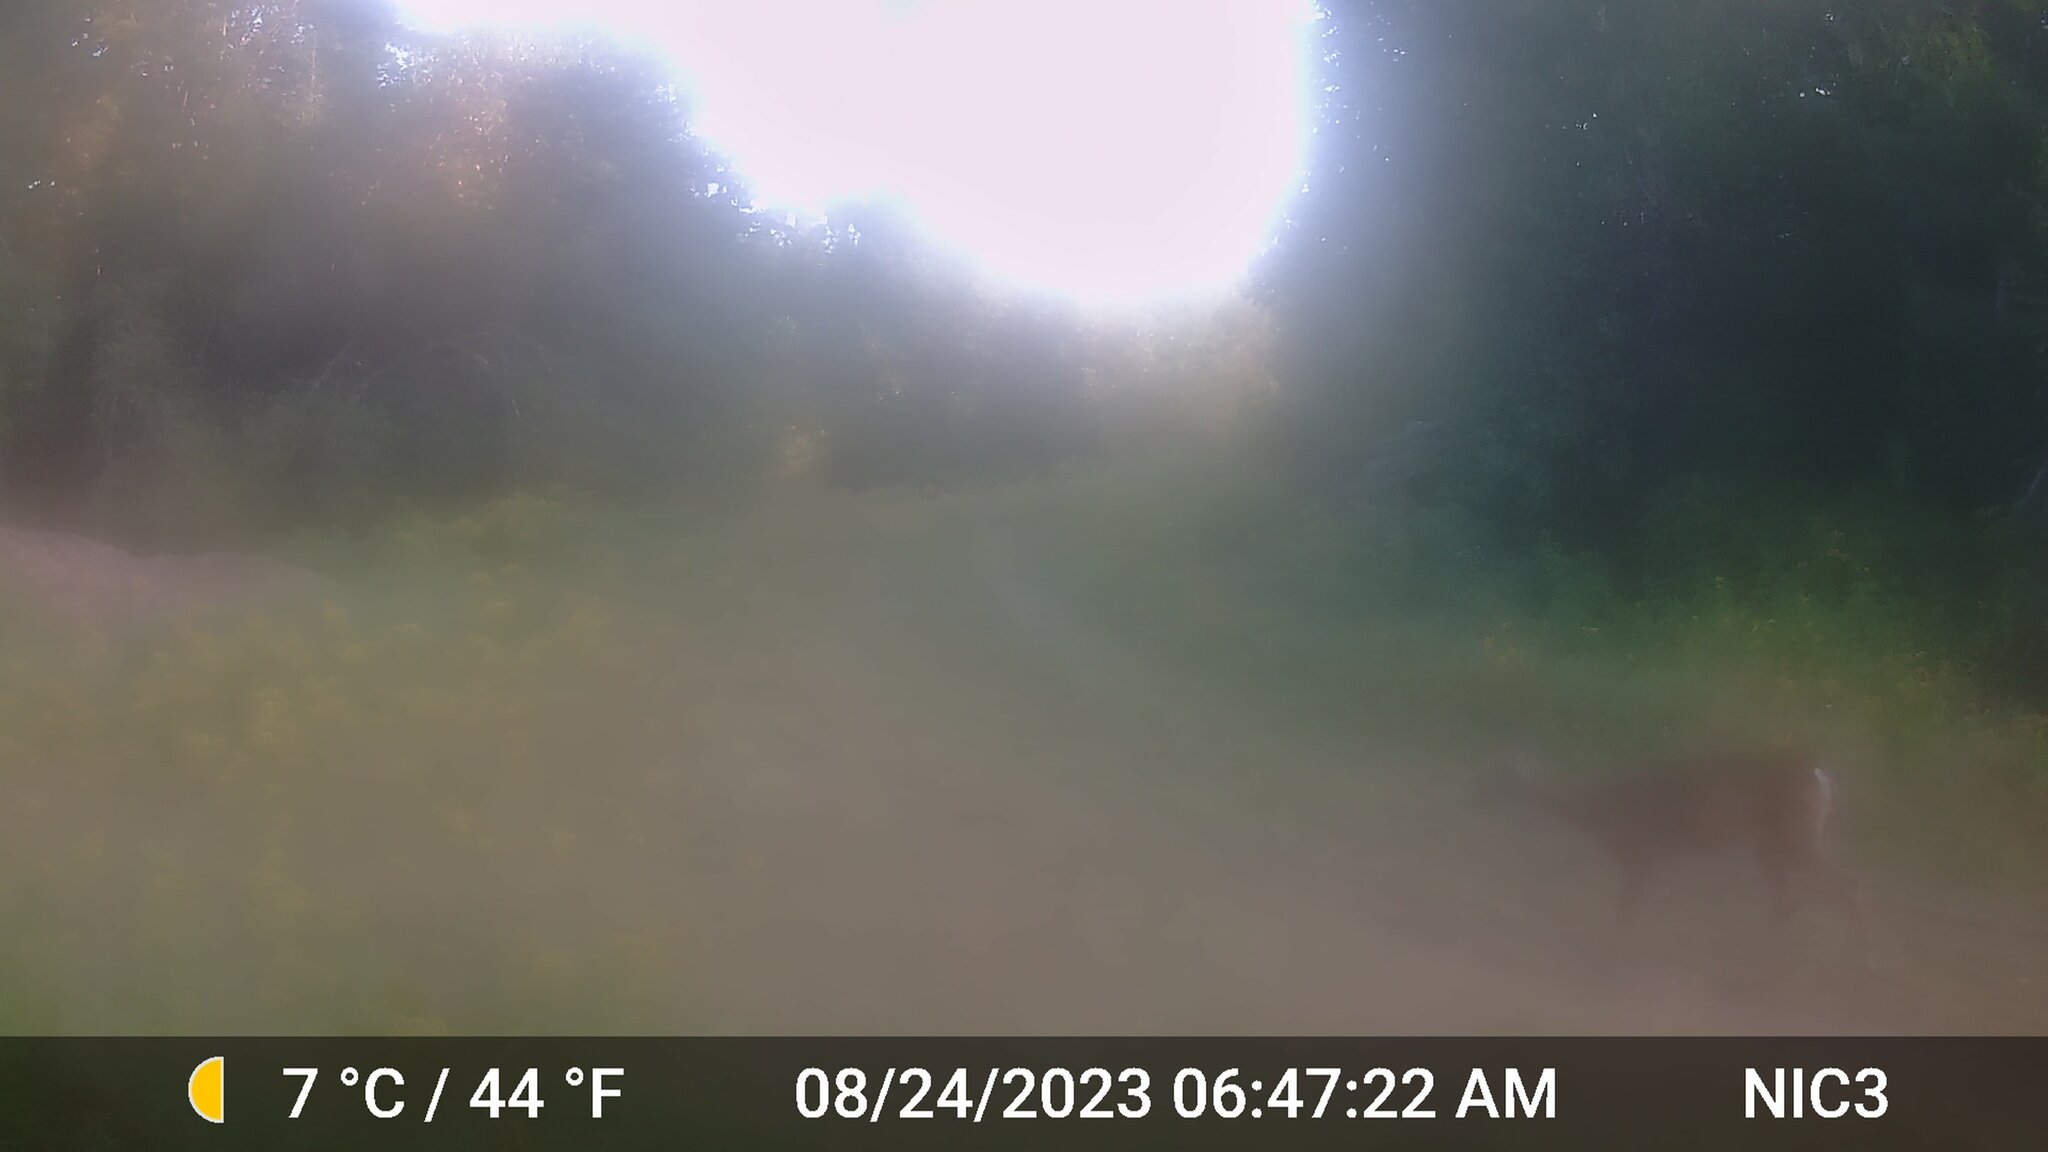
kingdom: Animalia
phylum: Chordata
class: Mammalia
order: Artiodactyla
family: Cervidae
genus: Odocoileus
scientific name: Odocoileus virginianus
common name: White-tailed deer
